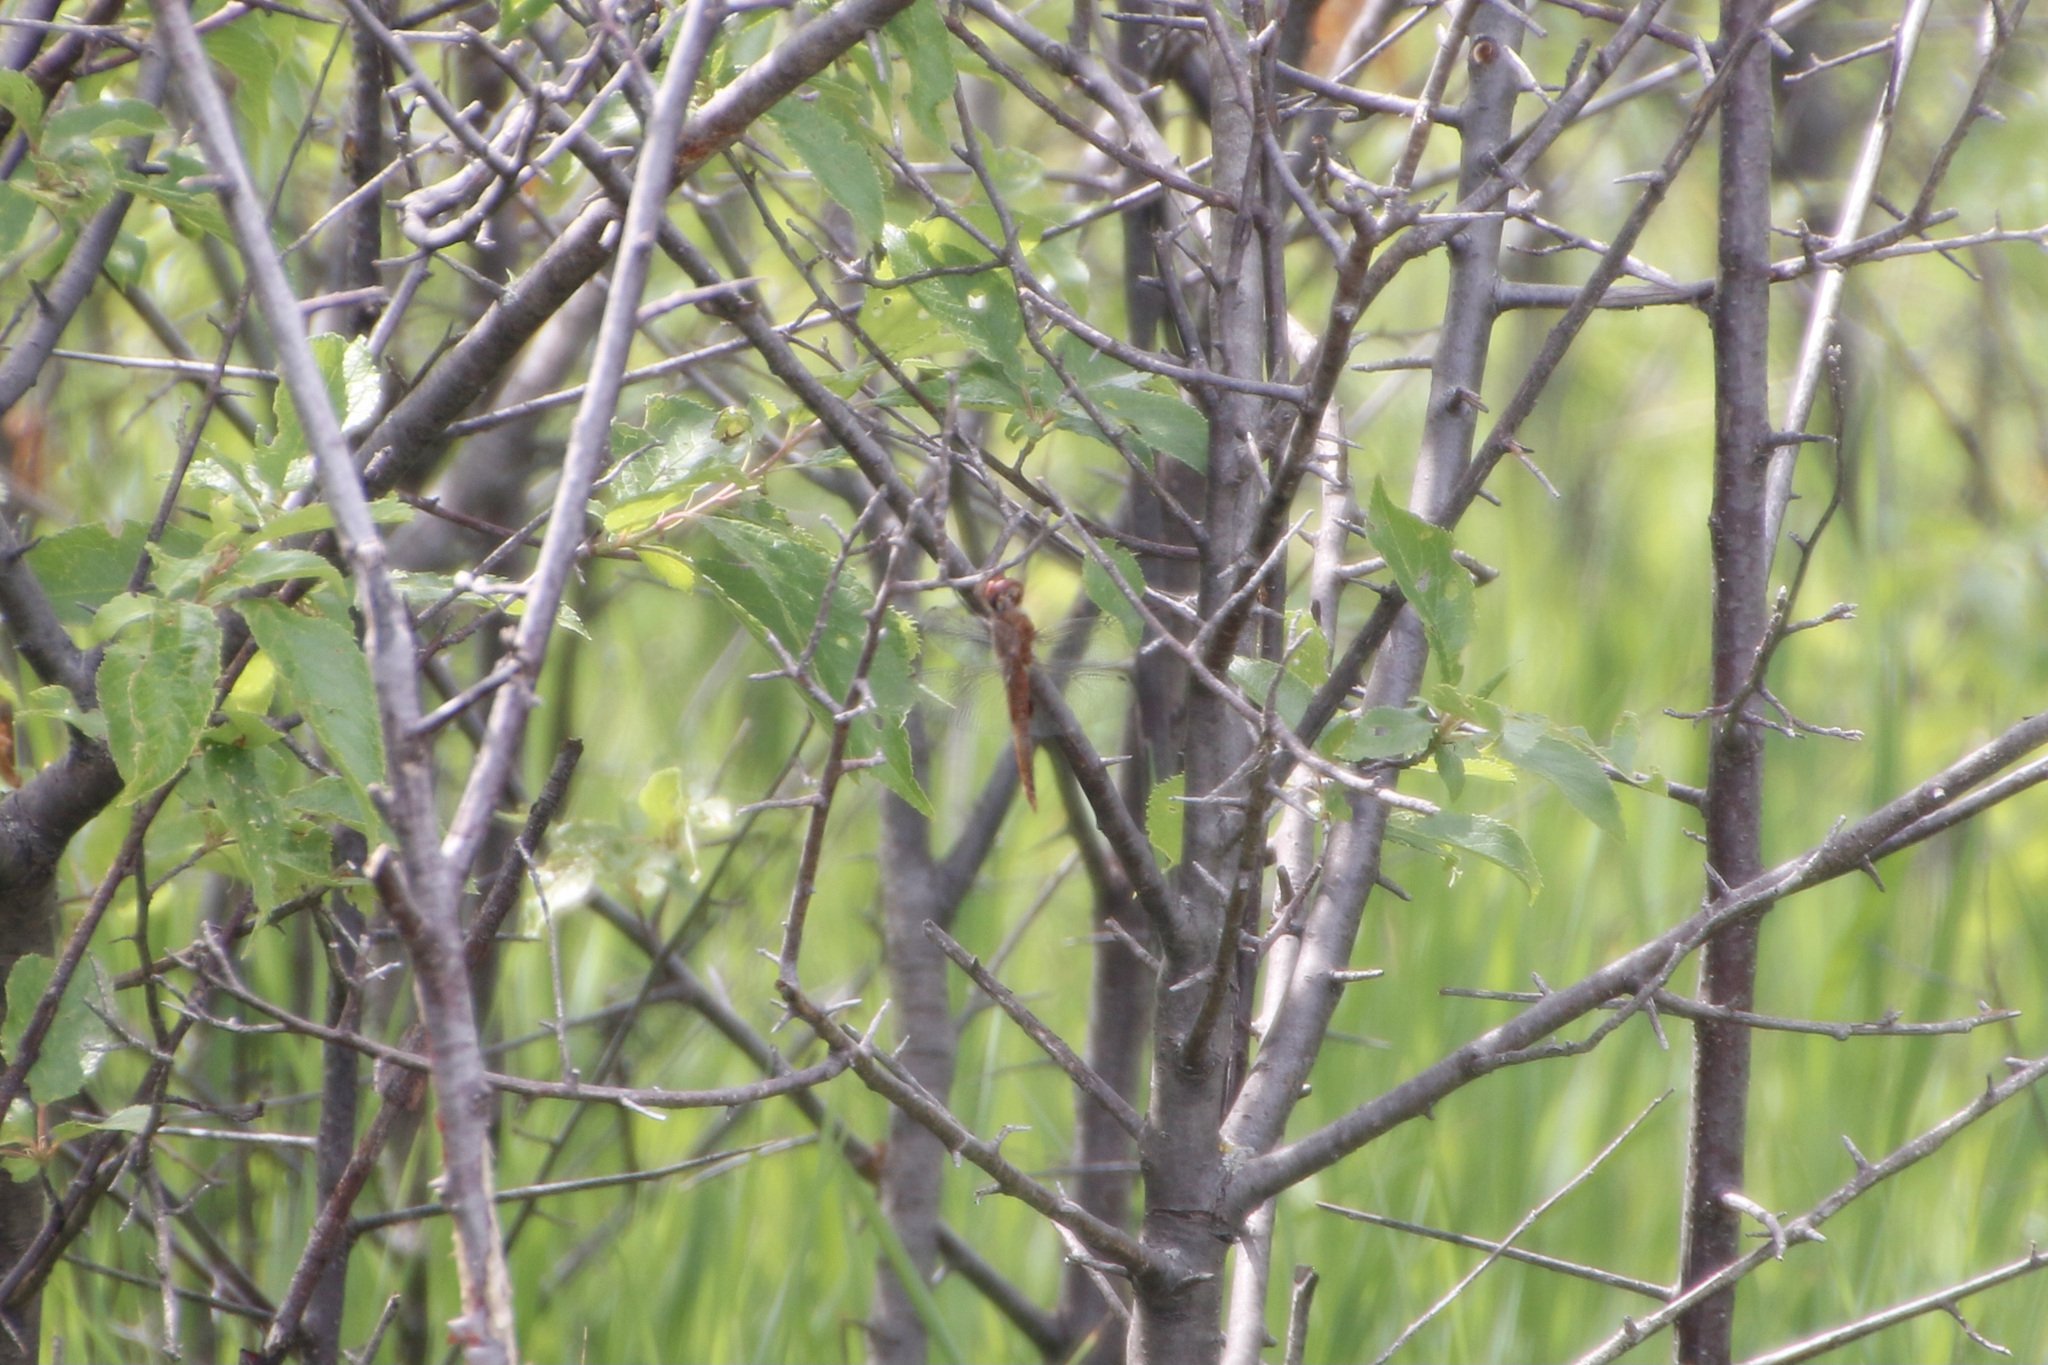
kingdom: Animalia
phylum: Arthropoda
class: Insecta
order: Odonata
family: Libellulidae
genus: Pantala
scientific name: Pantala hymenaea
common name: Spot-winged glider
